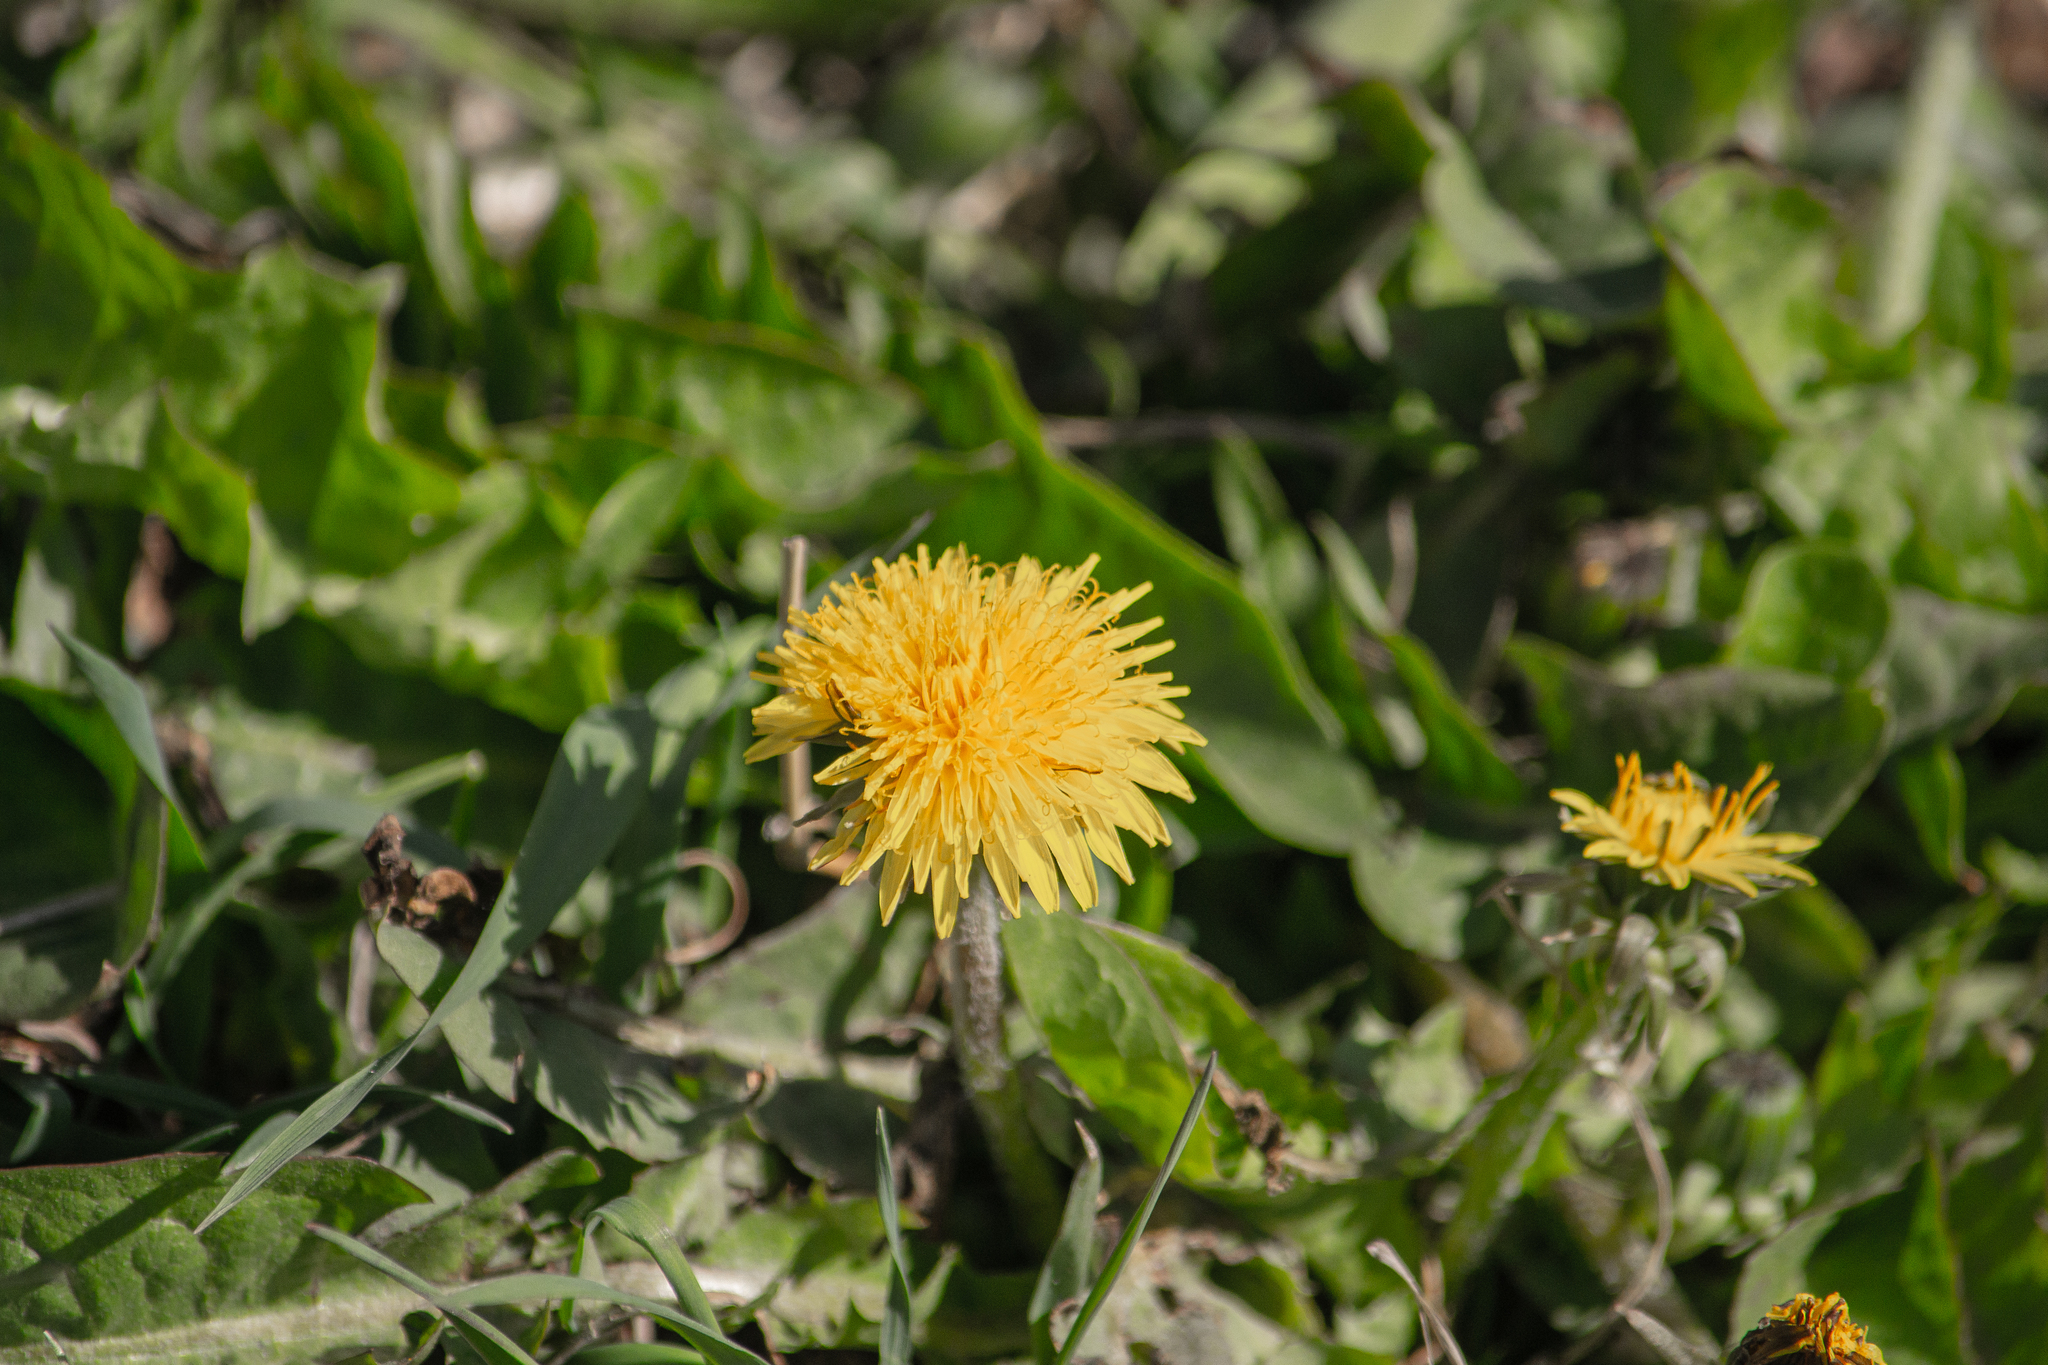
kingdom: Plantae
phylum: Tracheophyta
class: Magnoliopsida
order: Asterales
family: Asteraceae
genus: Taraxacum
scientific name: Taraxacum officinale
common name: Common dandelion
